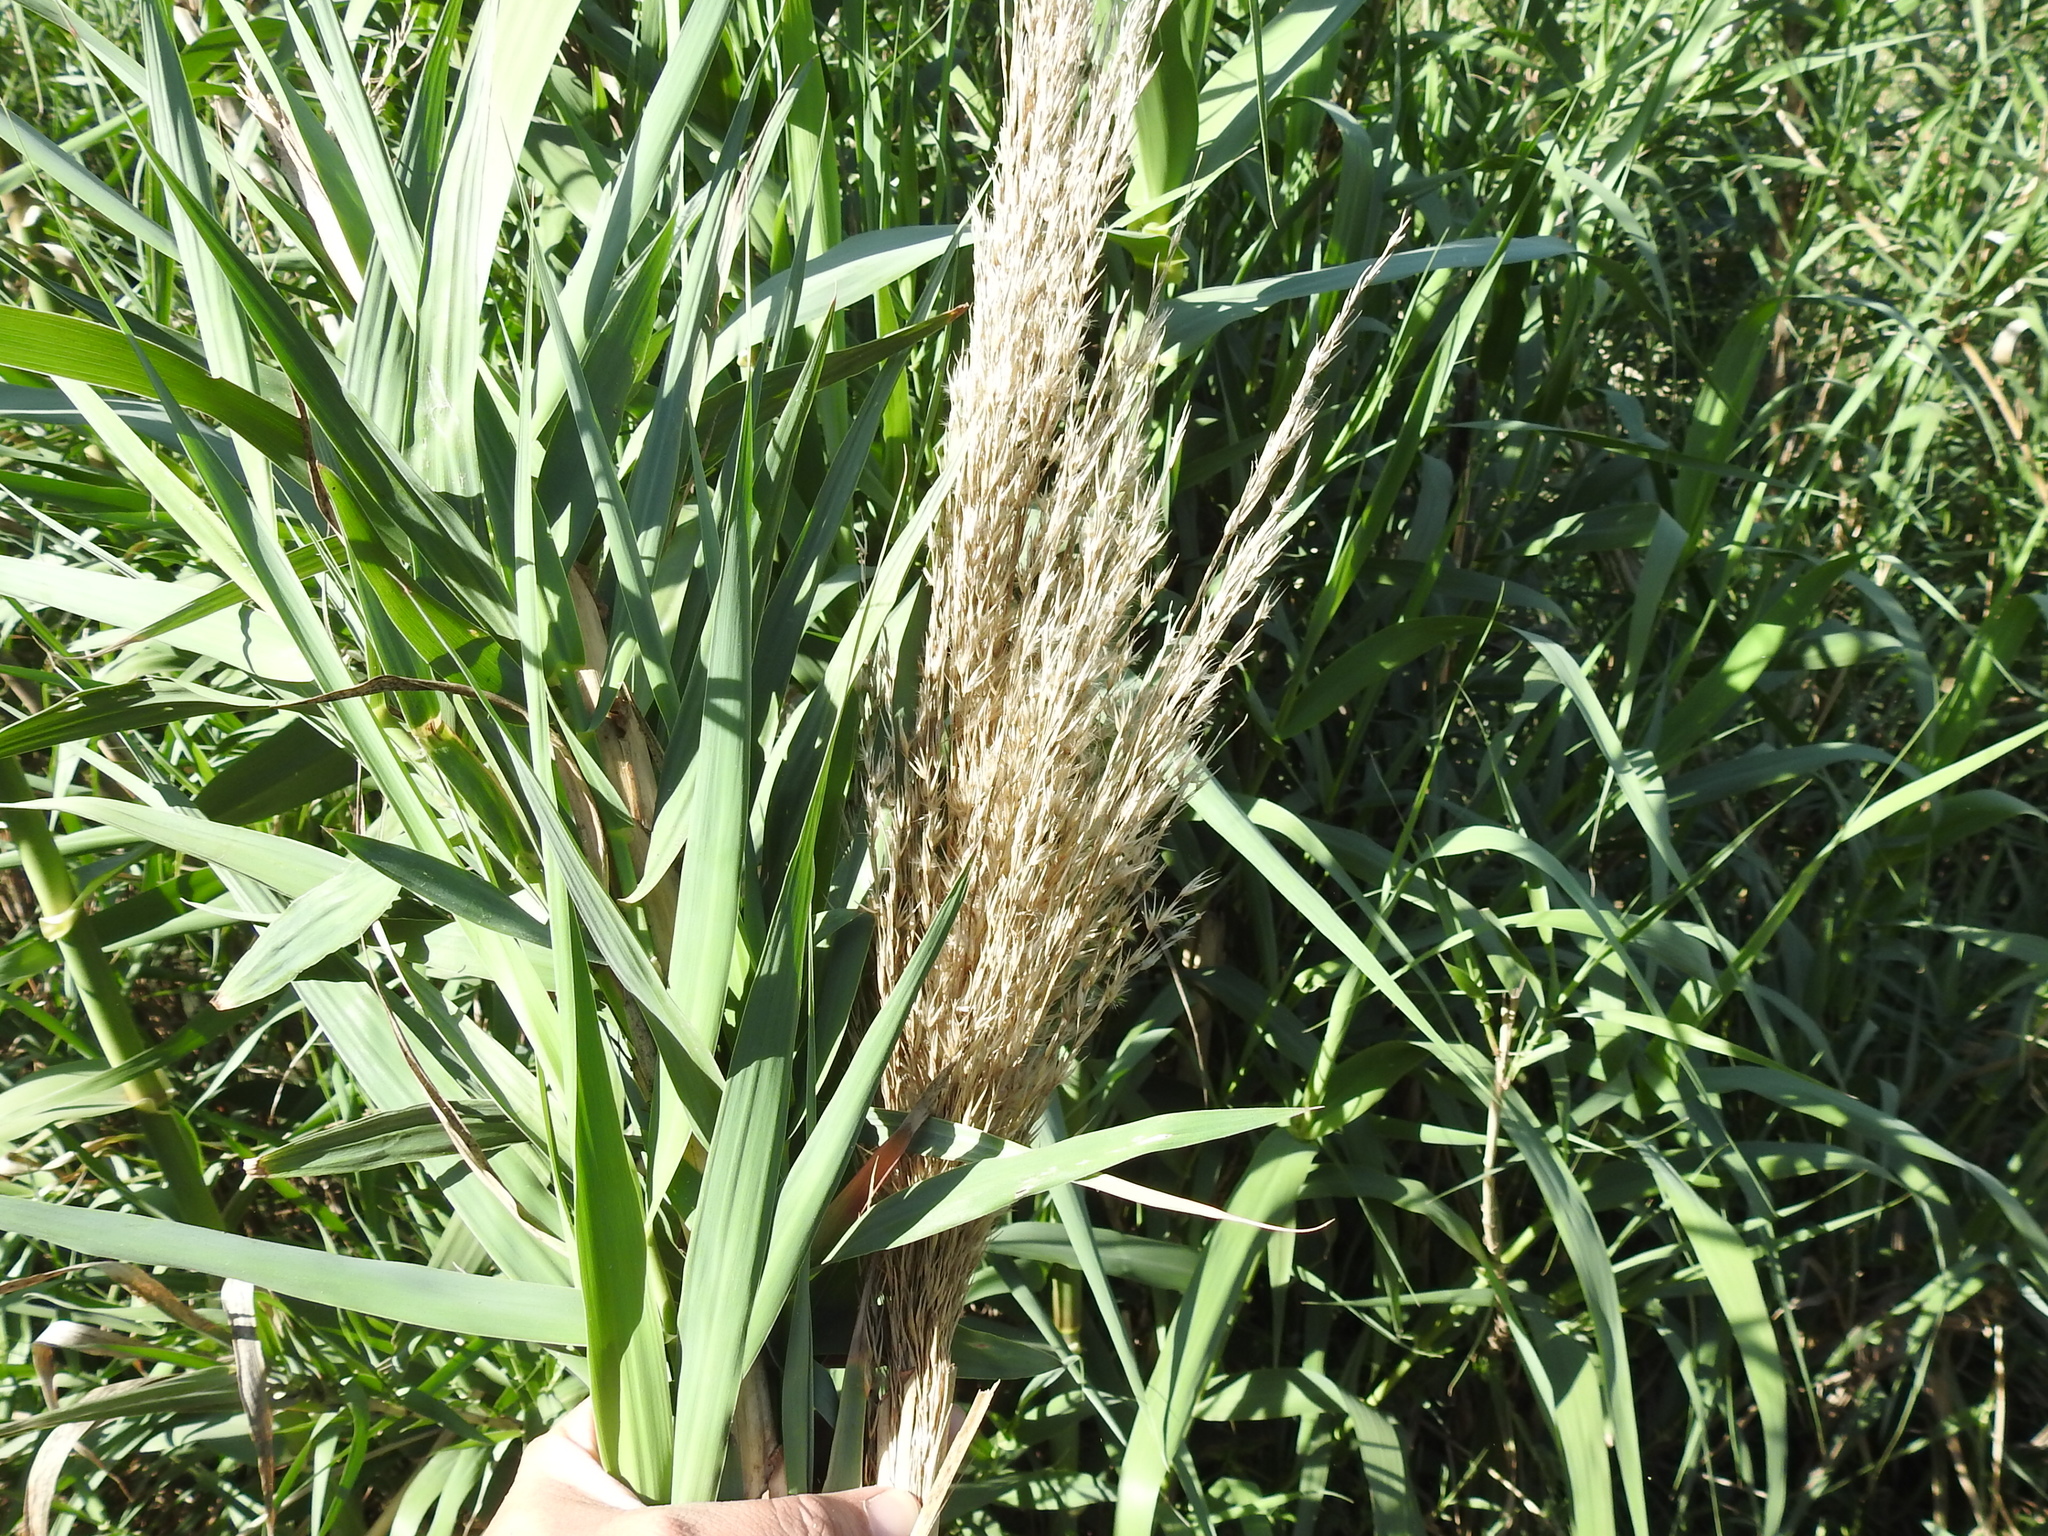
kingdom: Plantae
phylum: Tracheophyta
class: Liliopsida
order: Poales
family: Poaceae
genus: Arundo
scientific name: Arundo donax
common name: Giant reed
